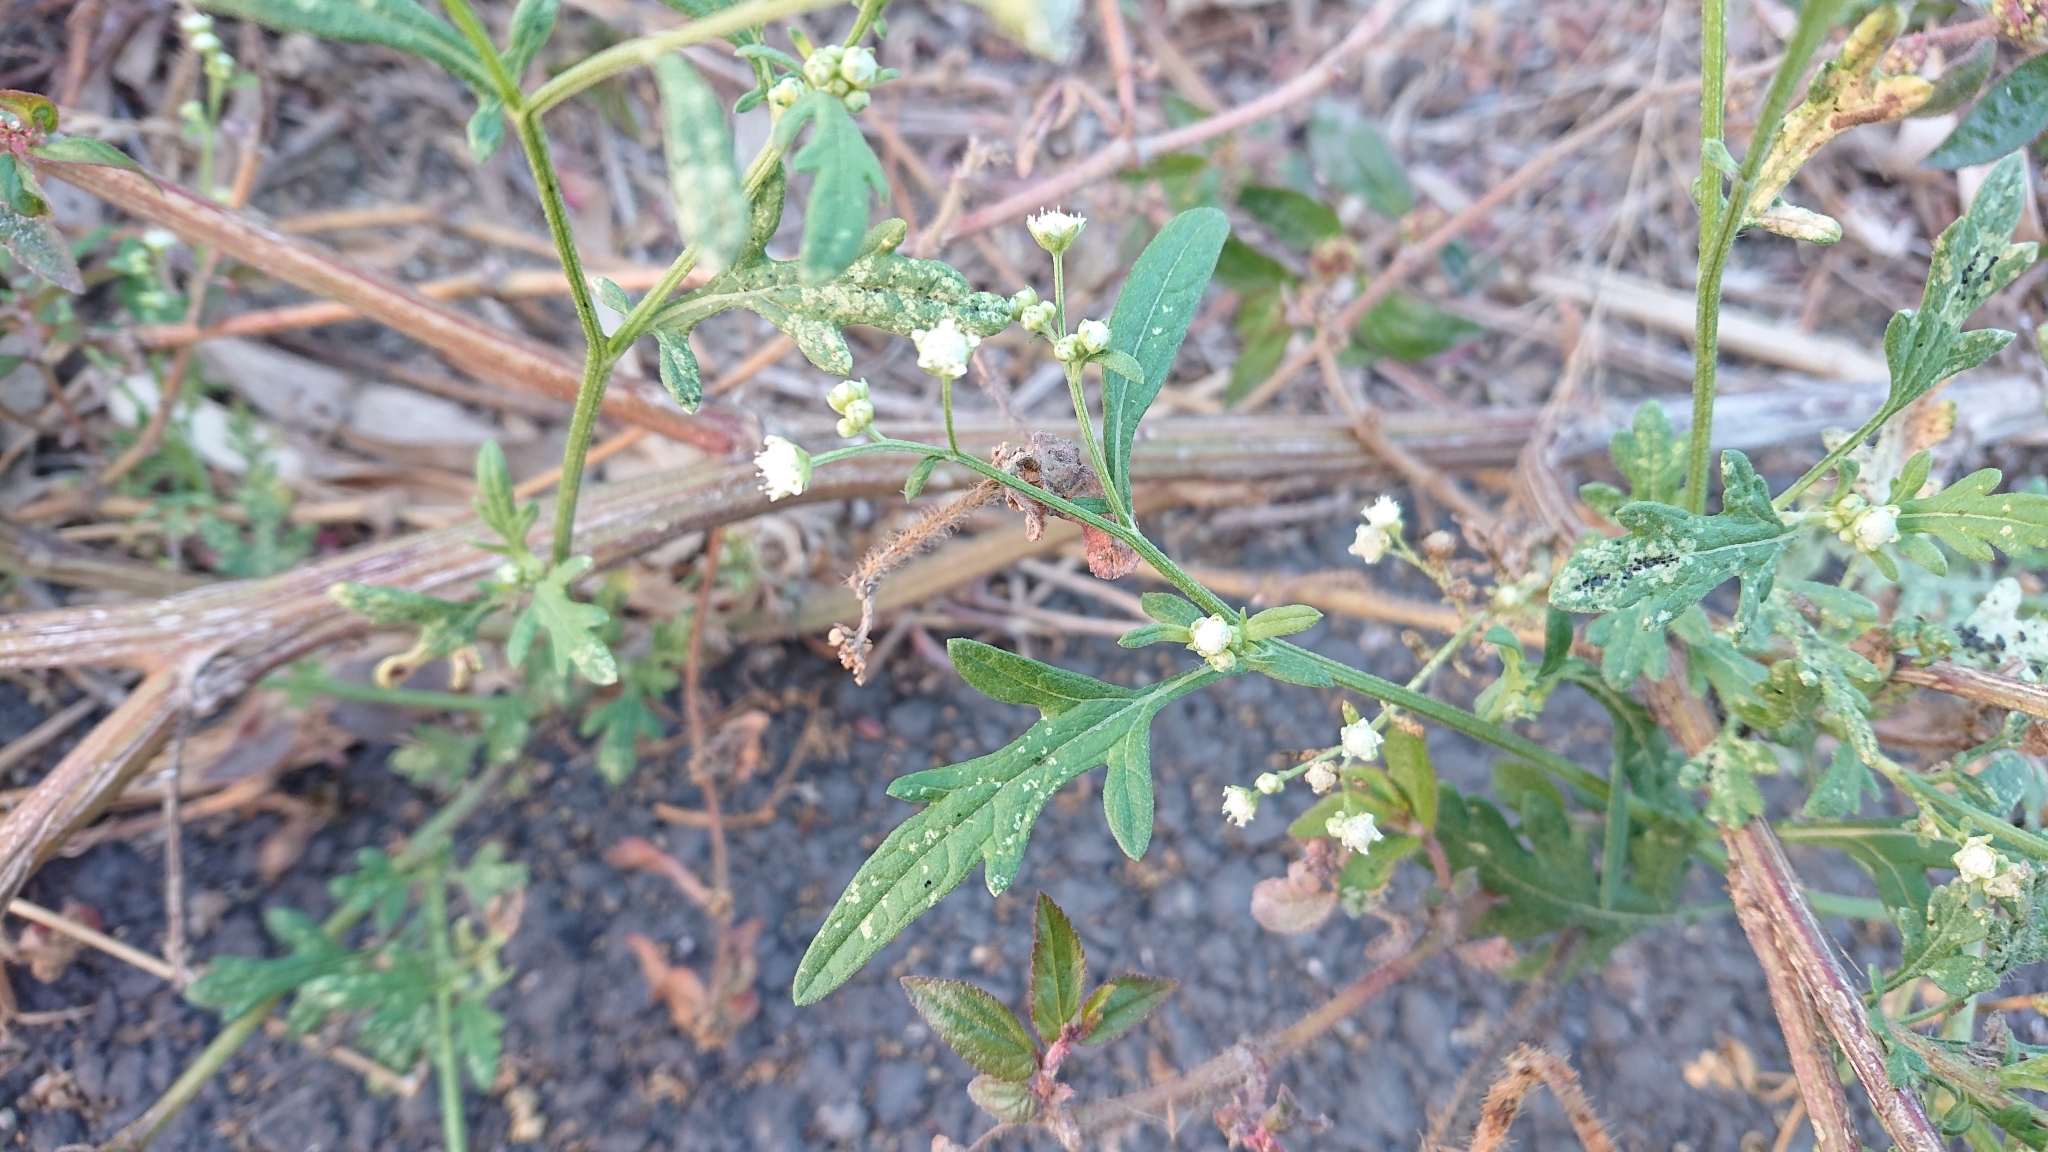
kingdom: Plantae
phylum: Tracheophyta
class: Magnoliopsida
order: Asterales
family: Asteraceae
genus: Parthenium
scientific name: Parthenium hysterophorus
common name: Santa maria feverfew
